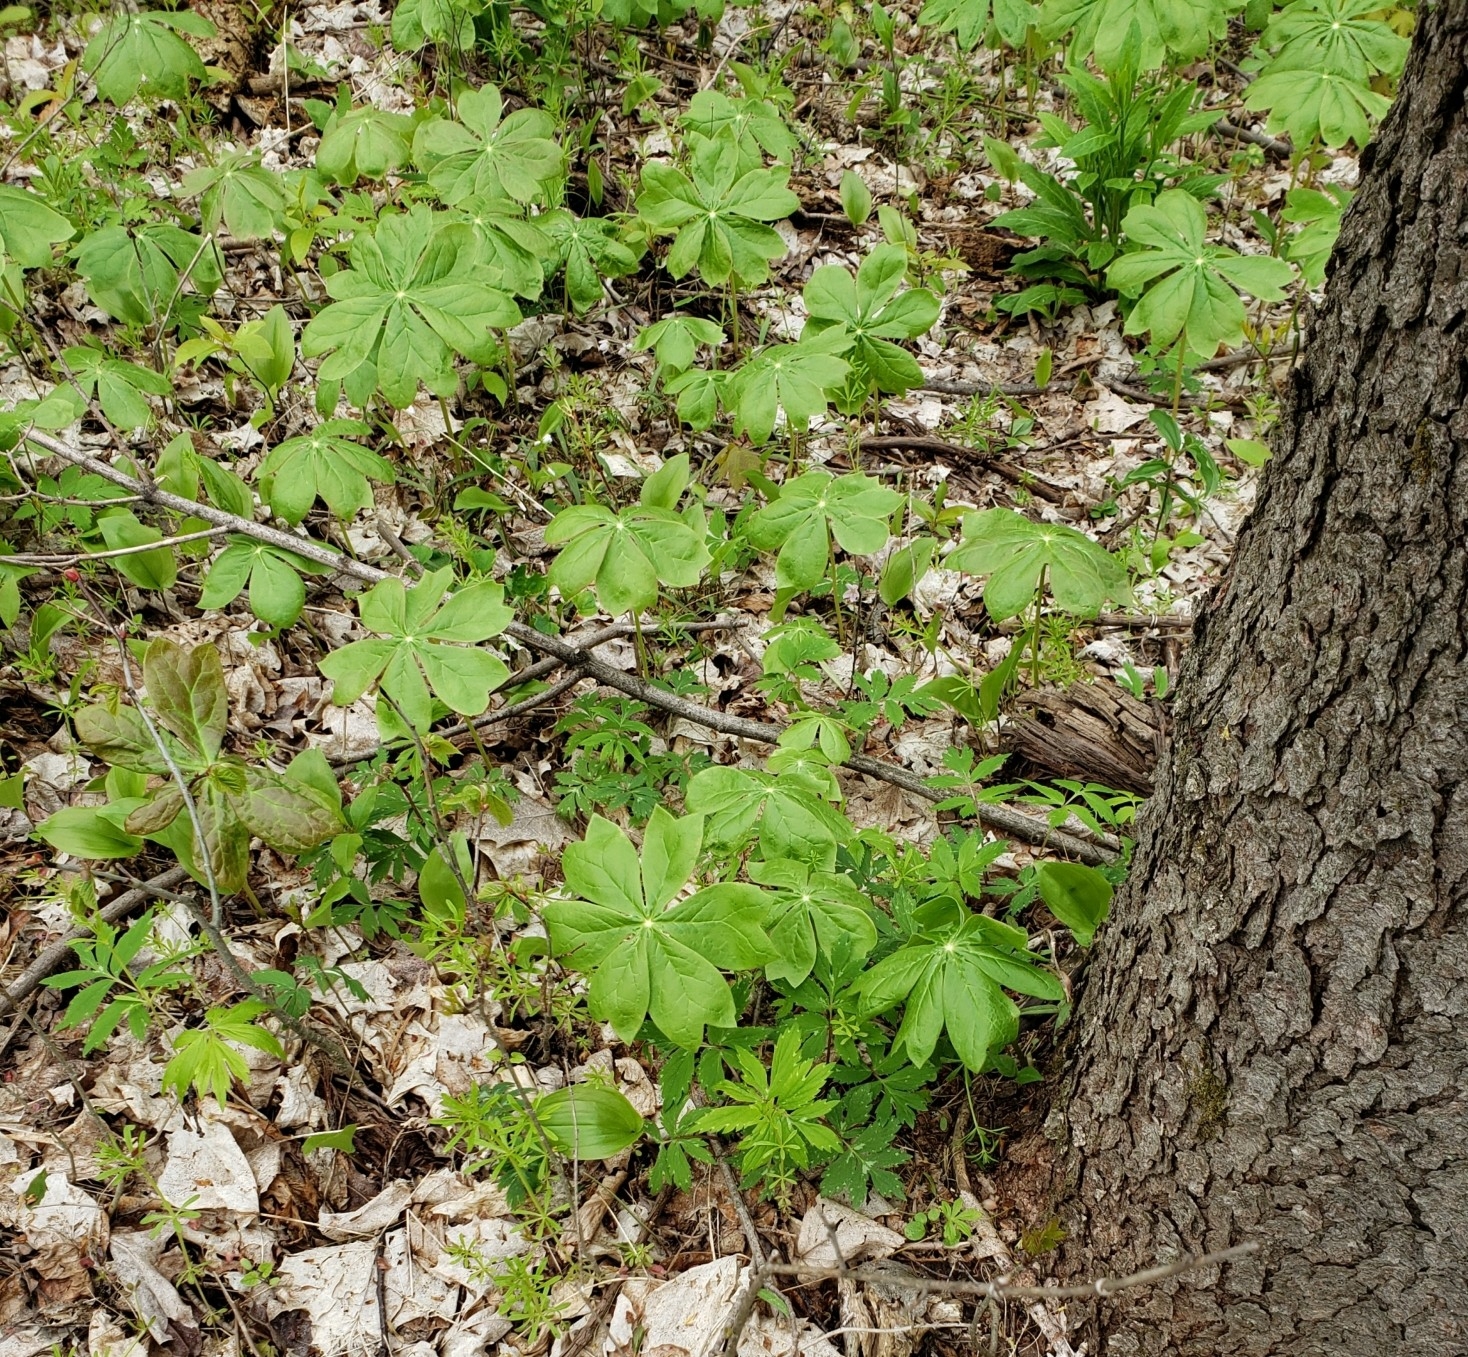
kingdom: Plantae
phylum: Tracheophyta
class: Magnoliopsida
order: Ranunculales
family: Berberidaceae
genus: Podophyllum
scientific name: Podophyllum peltatum
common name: Wild mandrake
